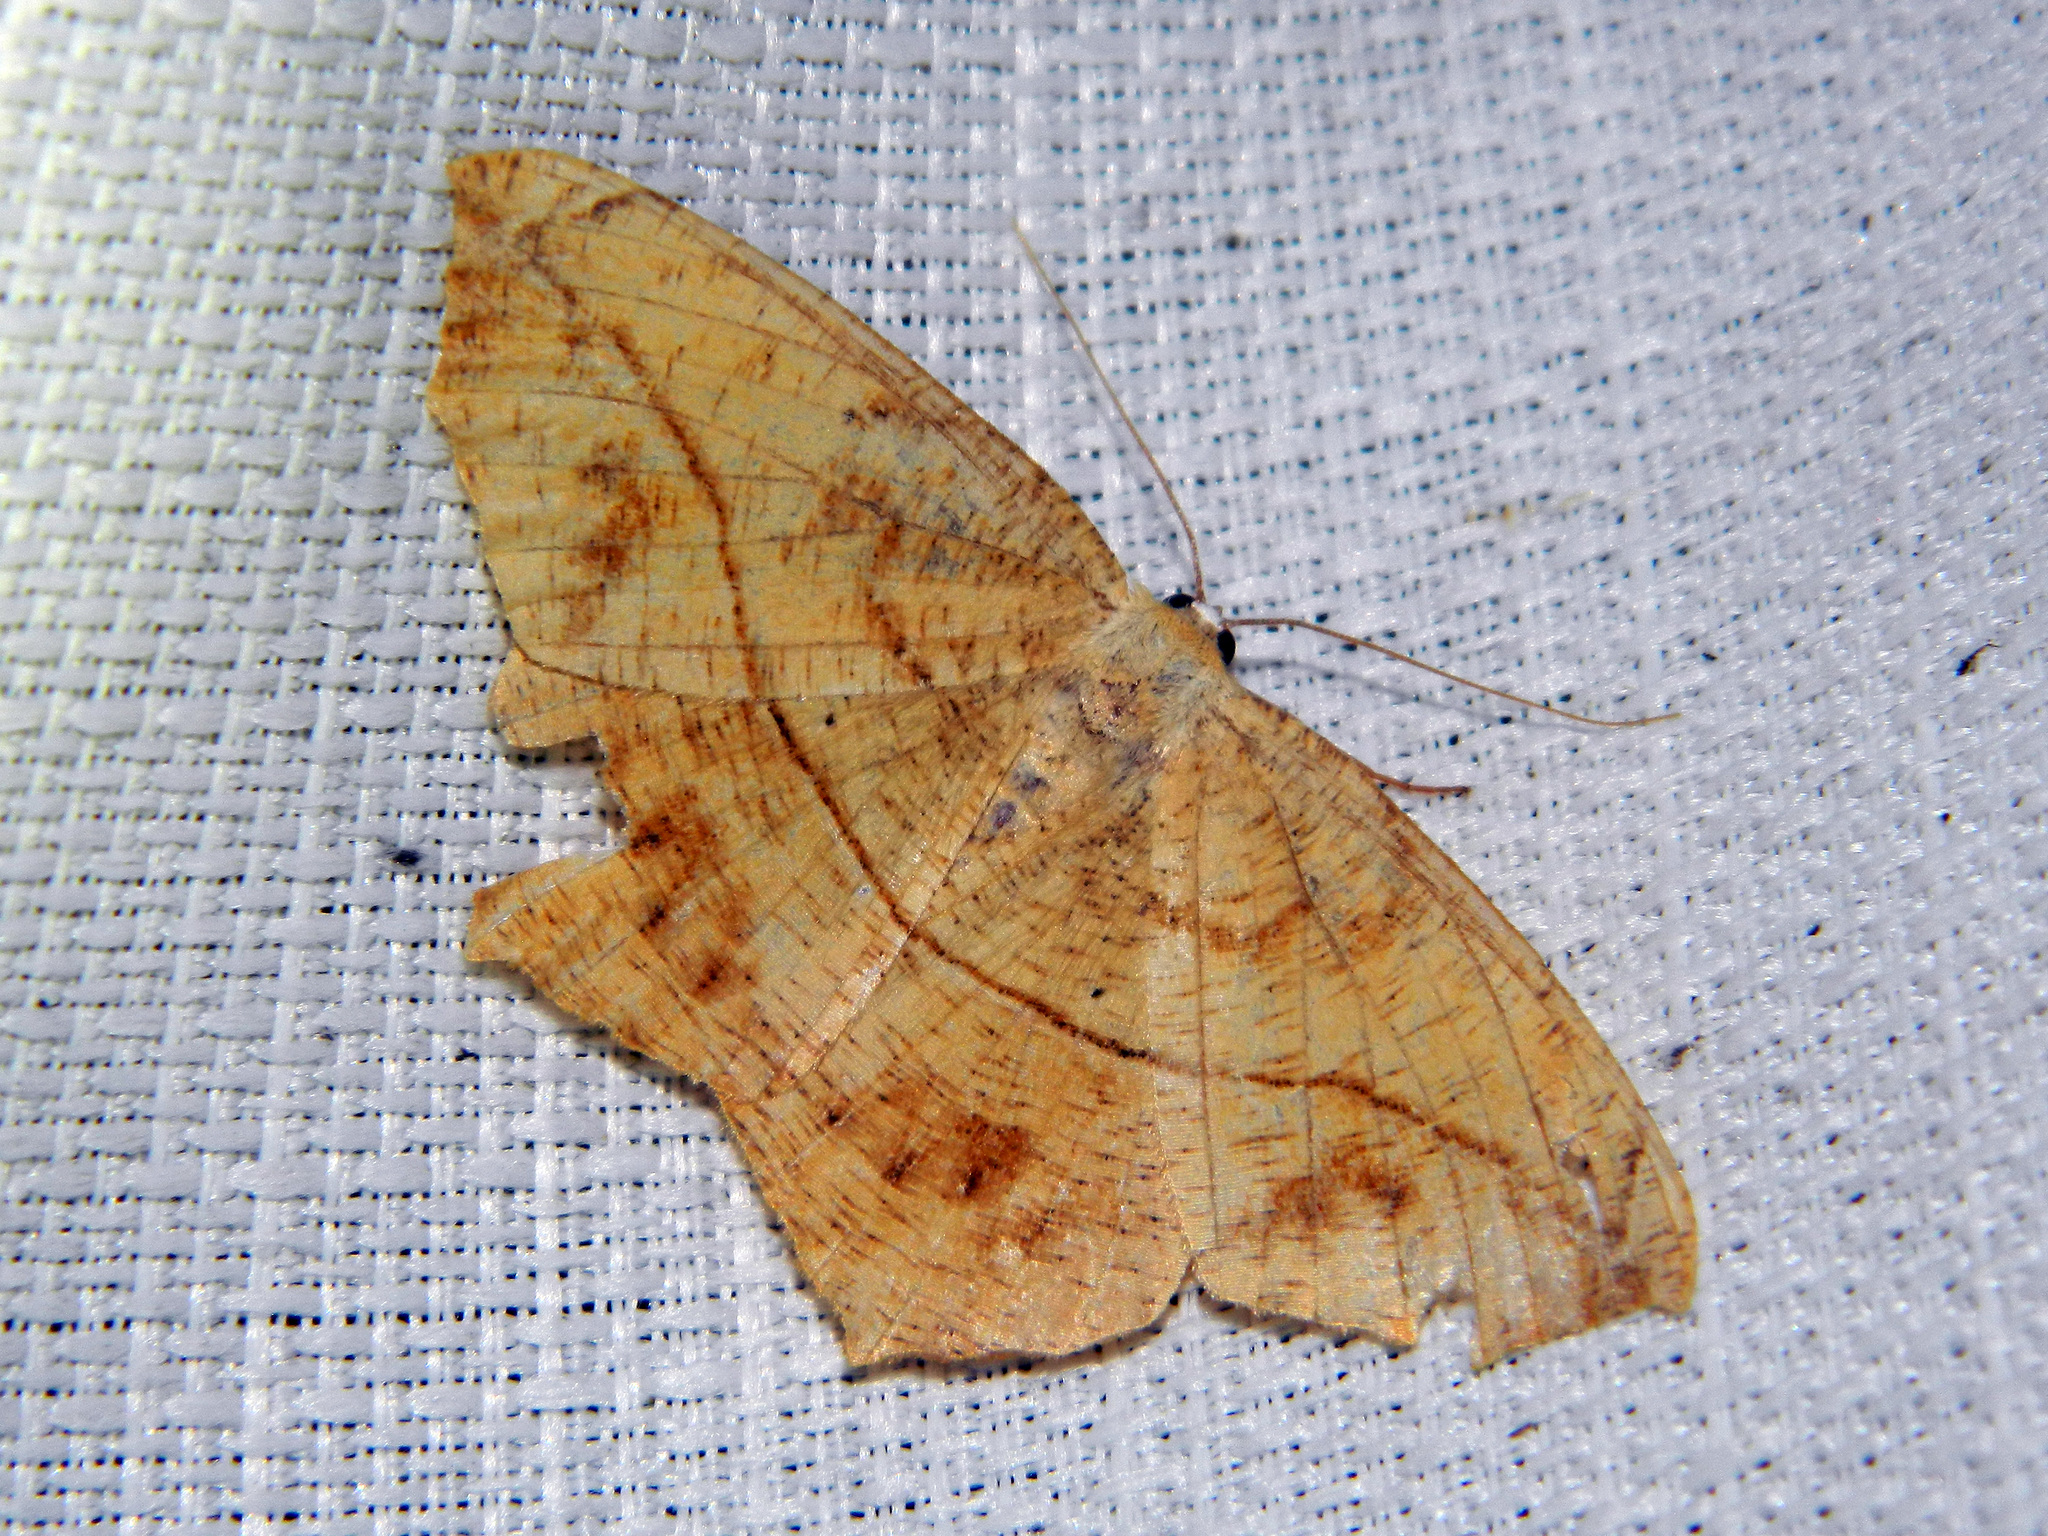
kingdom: Animalia
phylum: Arthropoda
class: Insecta
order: Lepidoptera
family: Geometridae
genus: Prochoerodes
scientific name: Prochoerodes lineola
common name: Large maple spanworm
